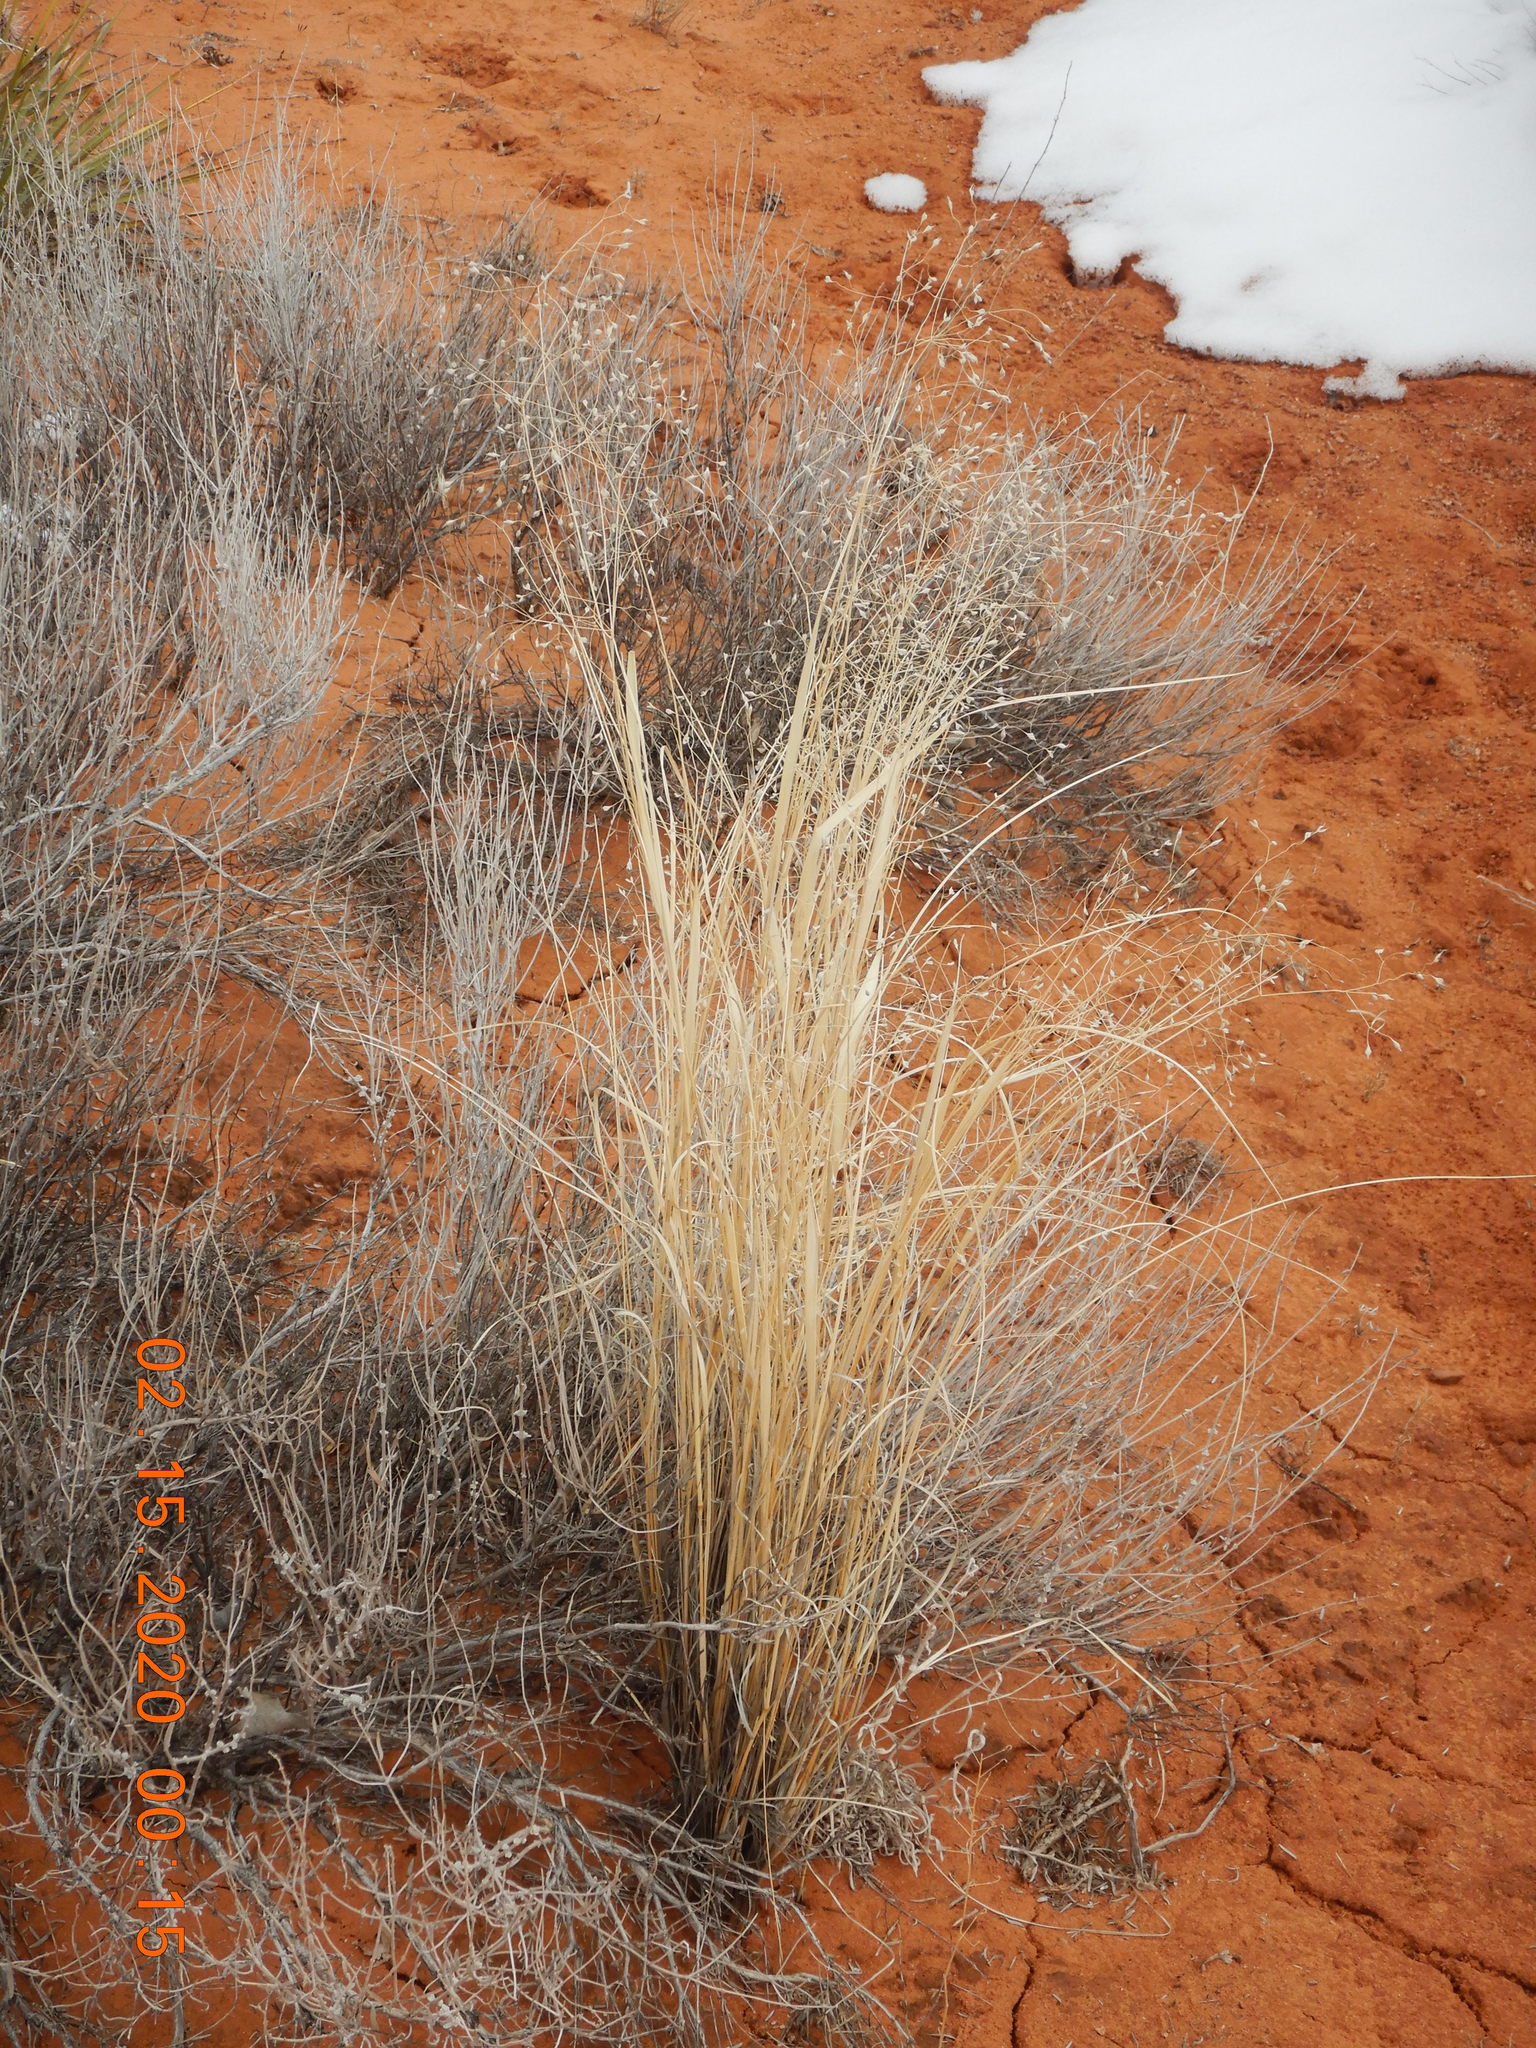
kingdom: Plantae
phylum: Tracheophyta
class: Liliopsida
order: Poales
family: Poaceae
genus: Eriocoma
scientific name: Eriocoma hymenoides
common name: Indian mountain ricegrass
